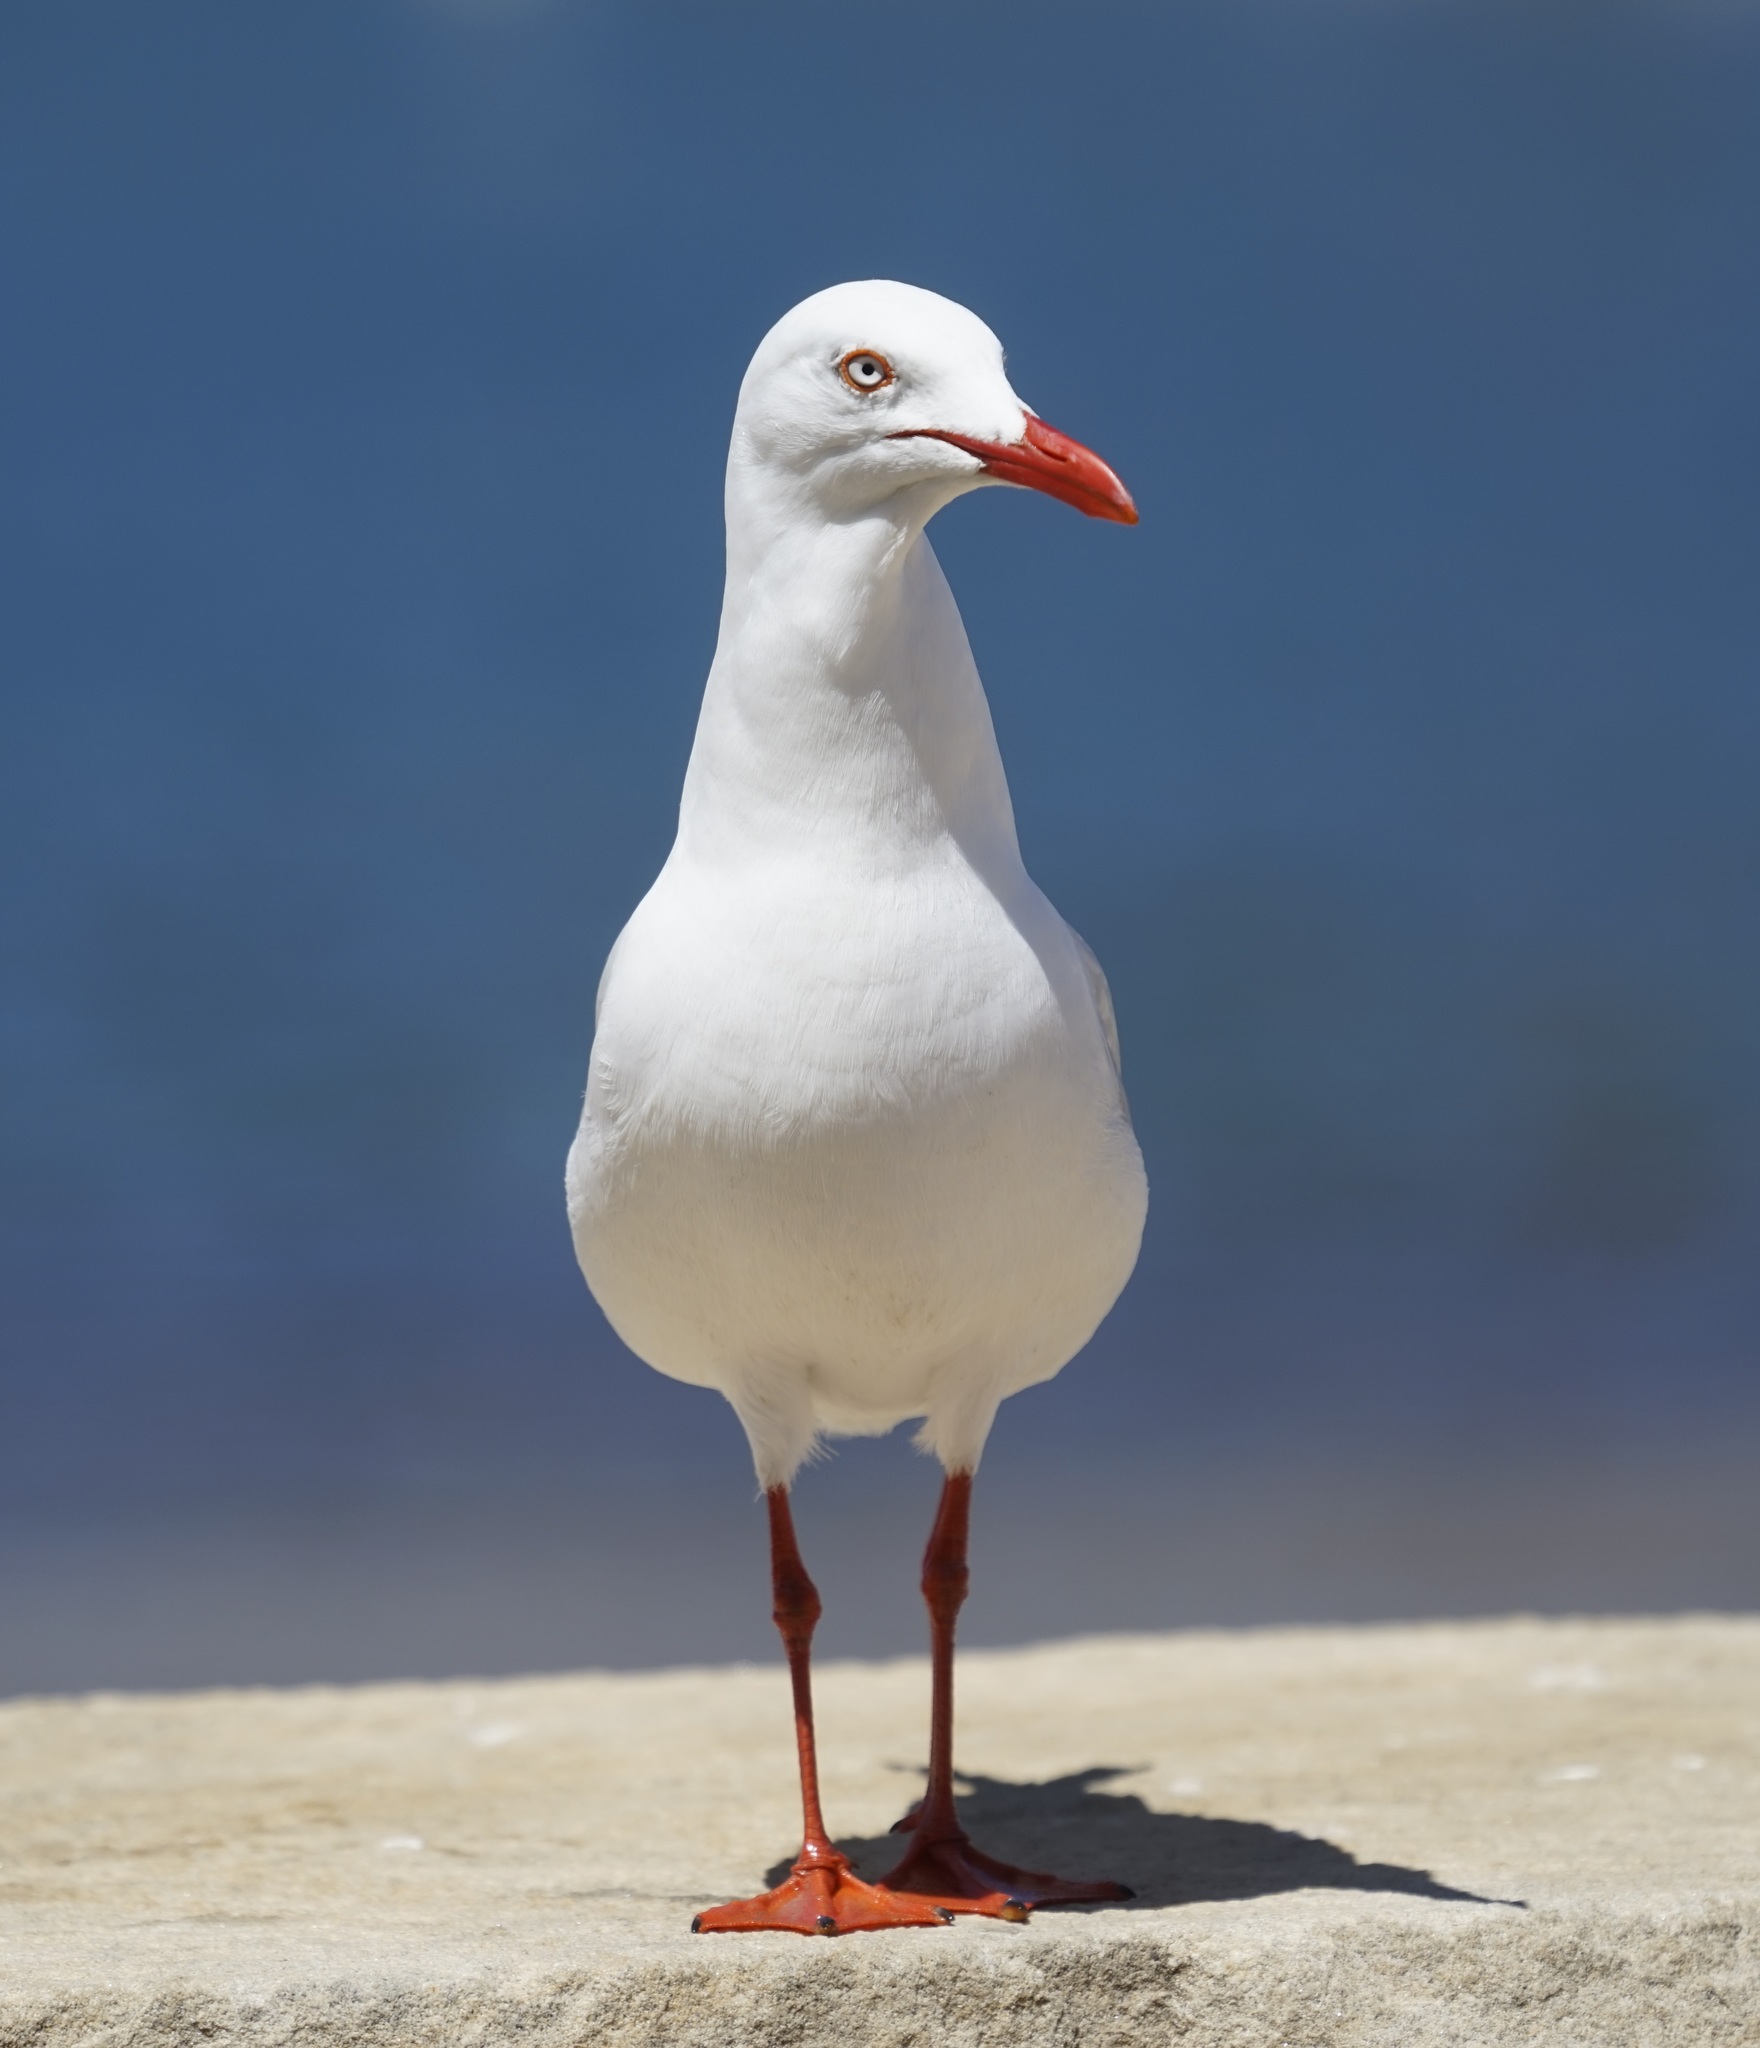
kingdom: Animalia
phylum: Chordata
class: Aves
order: Charadriiformes
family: Laridae
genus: Chroicocephalus
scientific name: Chroicocephalus novaehollandiae
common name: Silver gull
